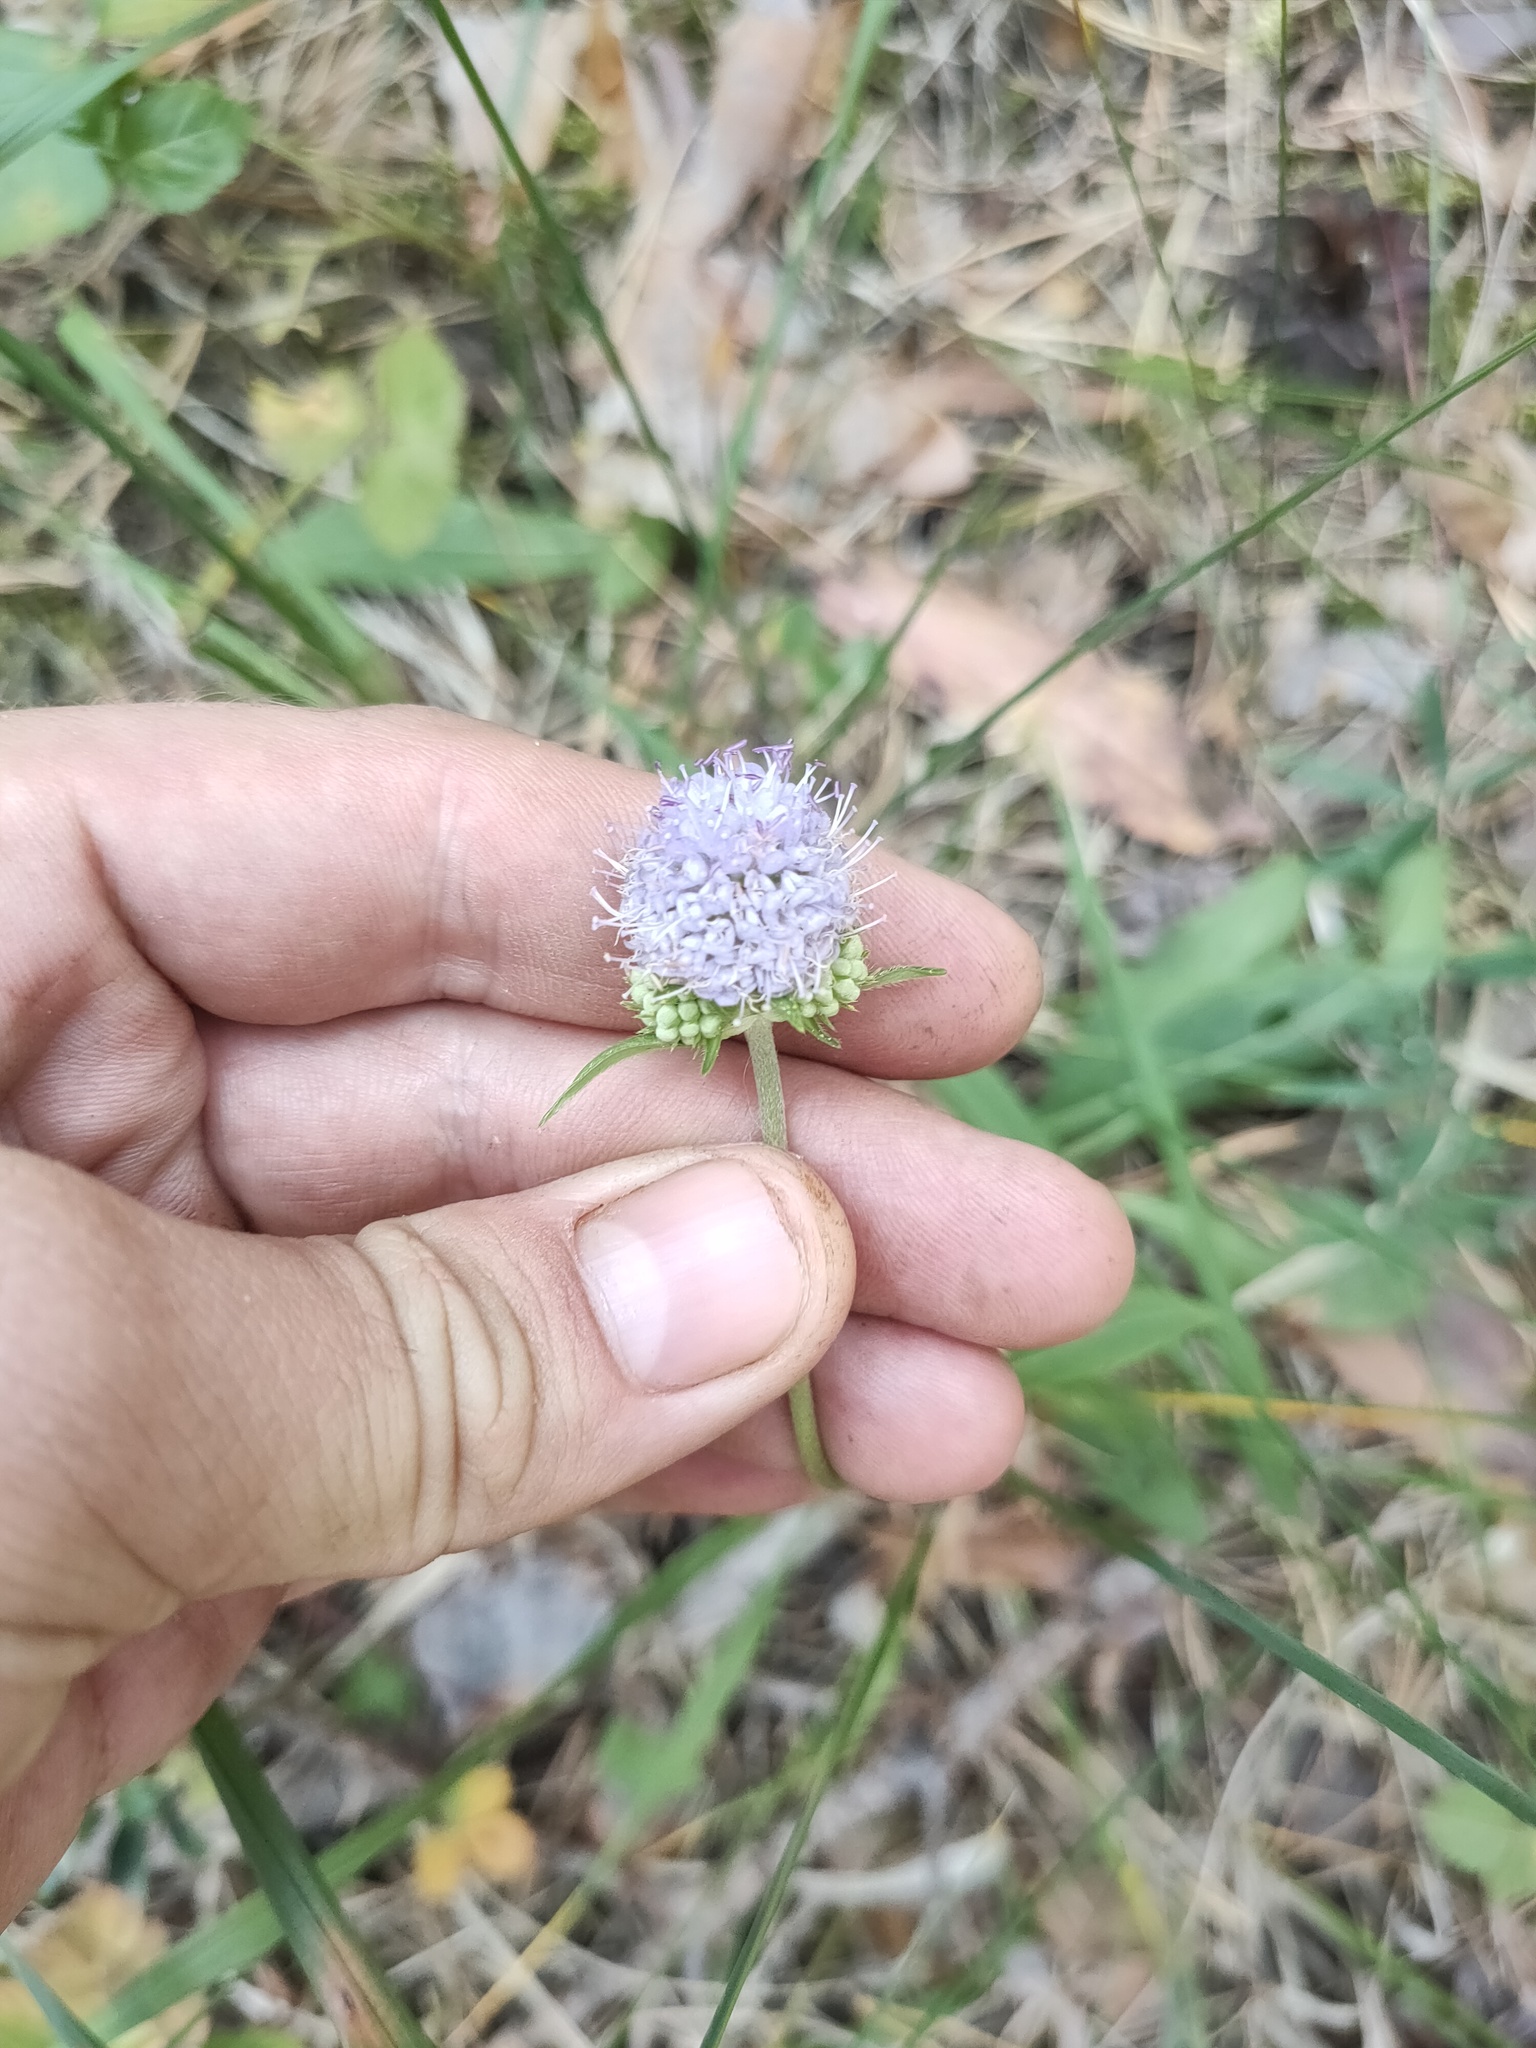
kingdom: Plantae
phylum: Tracheophyta
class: Magnoliopsida
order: Dipsacales
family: Caprifoliaceae
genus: Succisa
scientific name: Succisa pratensis
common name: Devil's-bit
